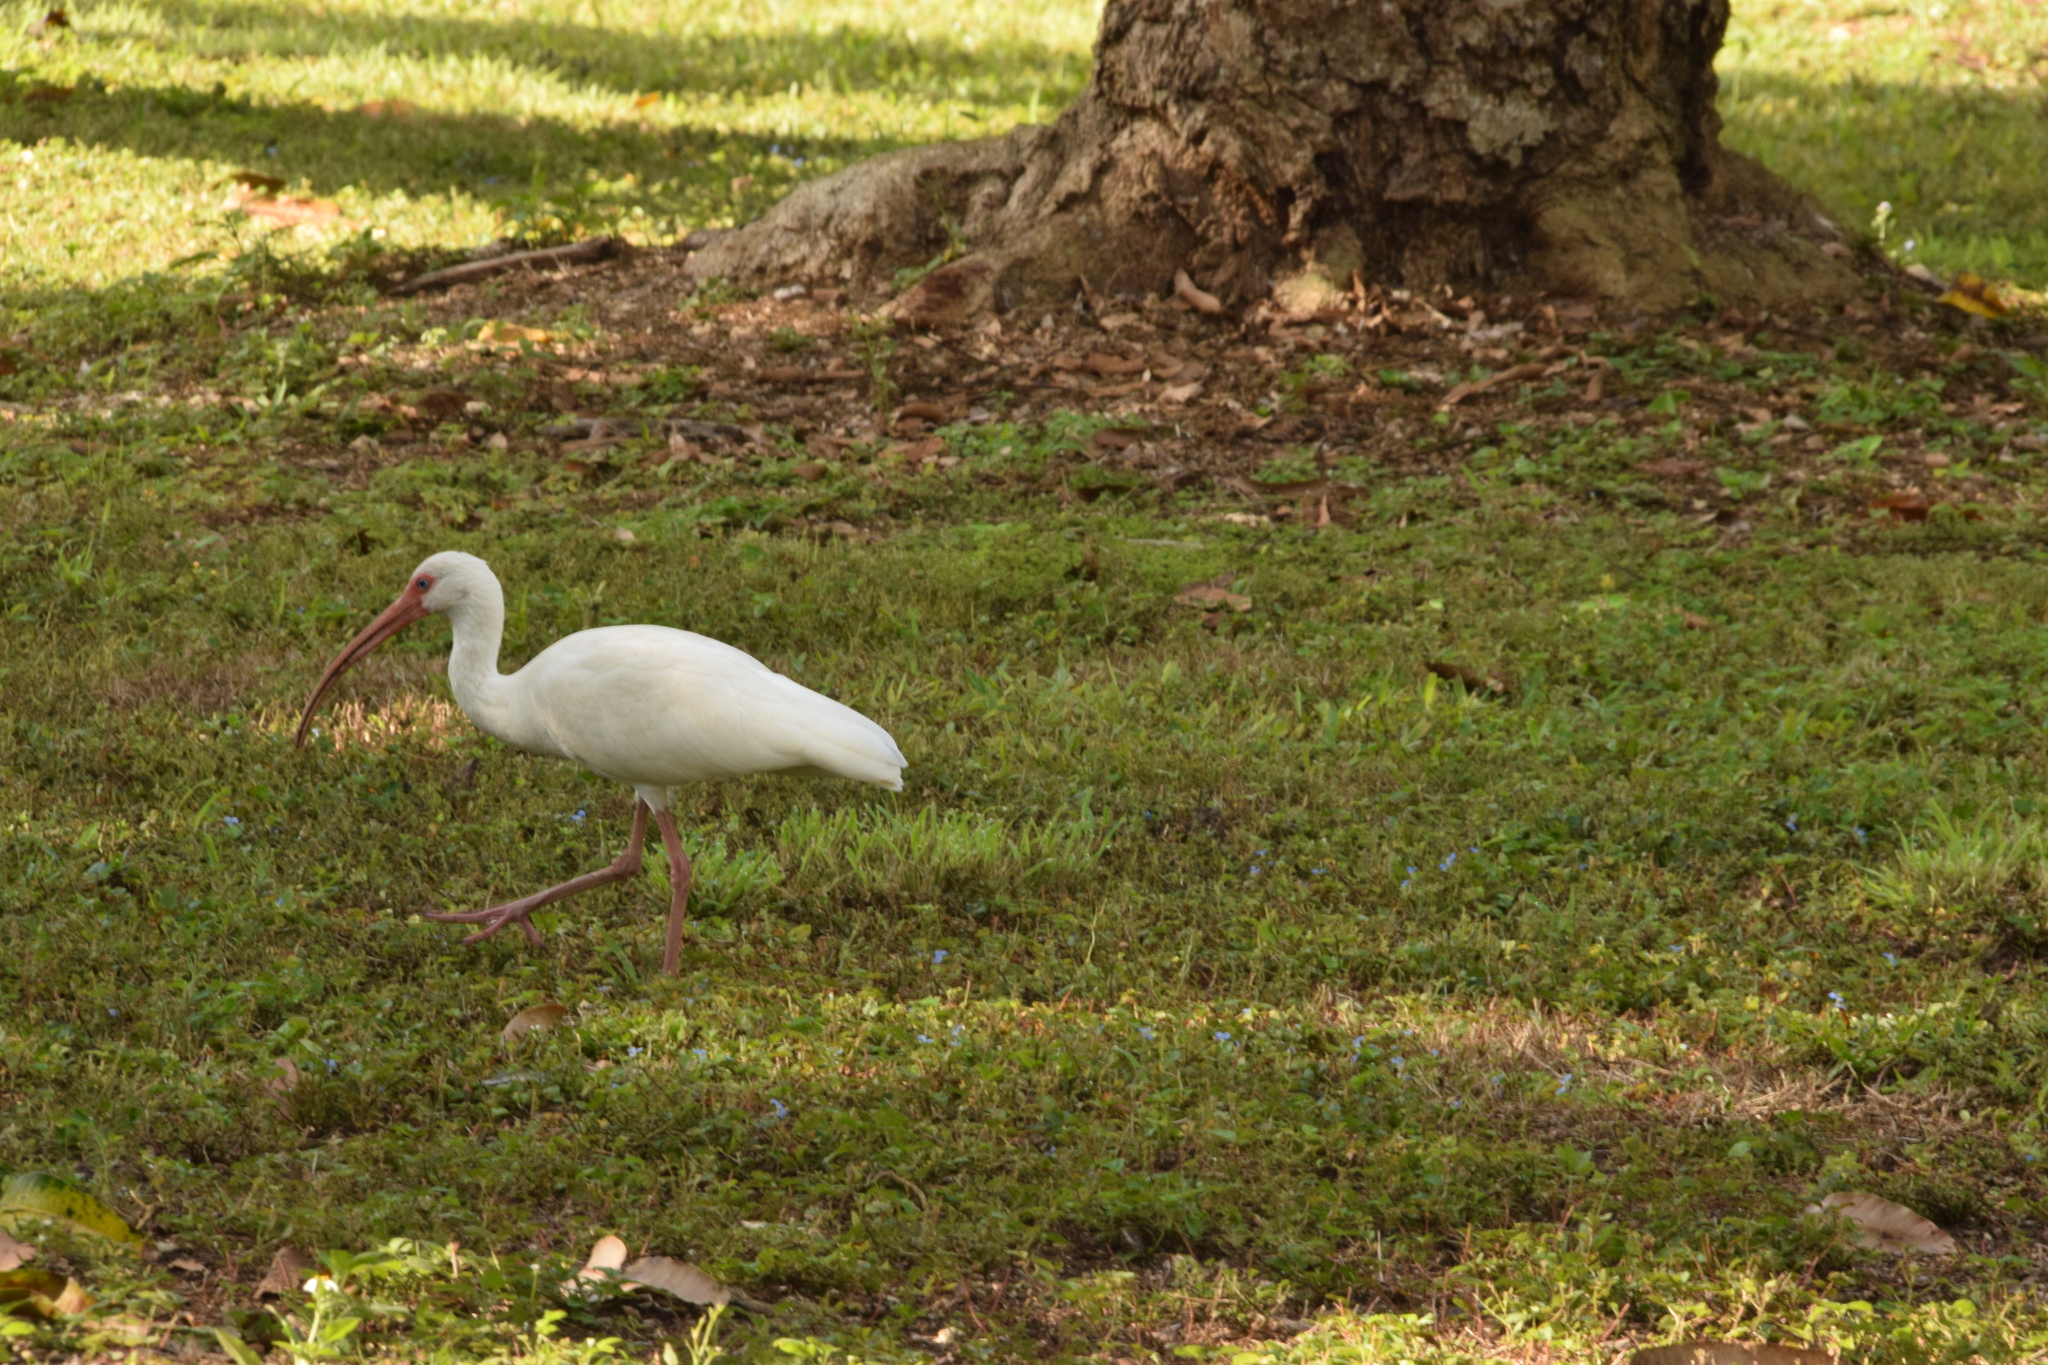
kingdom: Animalia
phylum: Chordata
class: Aves
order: Pelecaniformes
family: Threskiornithidae
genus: Eudocimus
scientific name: Eudocimus albus
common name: White ibis
